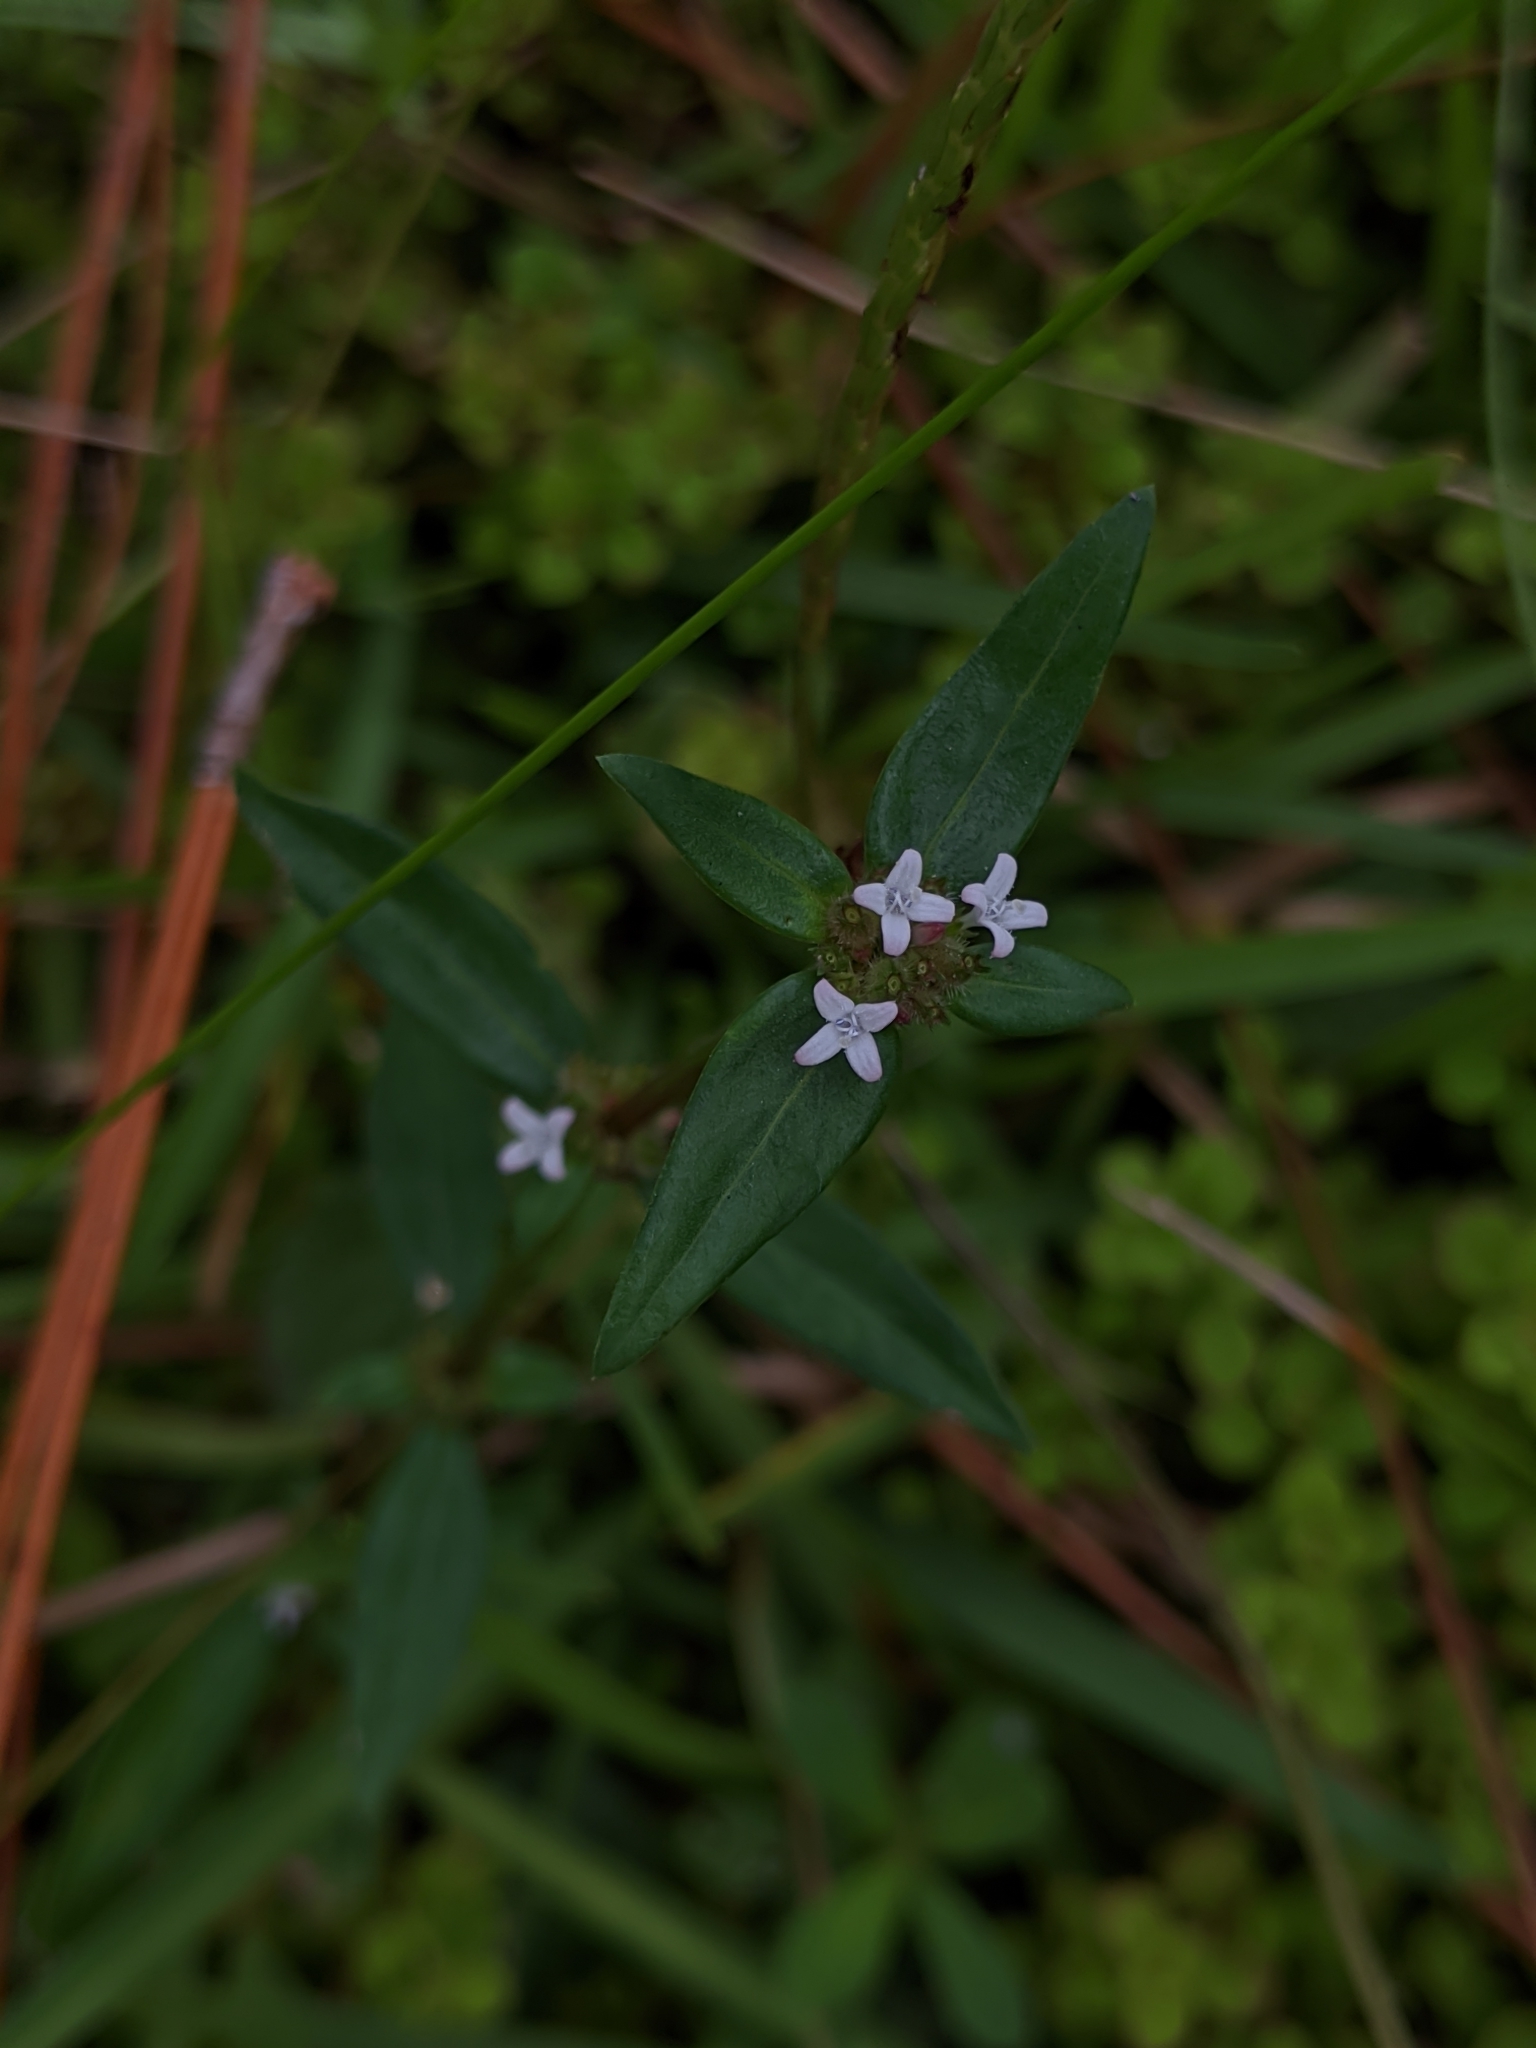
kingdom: Plantae
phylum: Tracheophyta
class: Magnoliopsida
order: Gentianales
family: Rubiaceae
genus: Spermacoce
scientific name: Spermacoce remota
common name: Woodland false buttonweed
